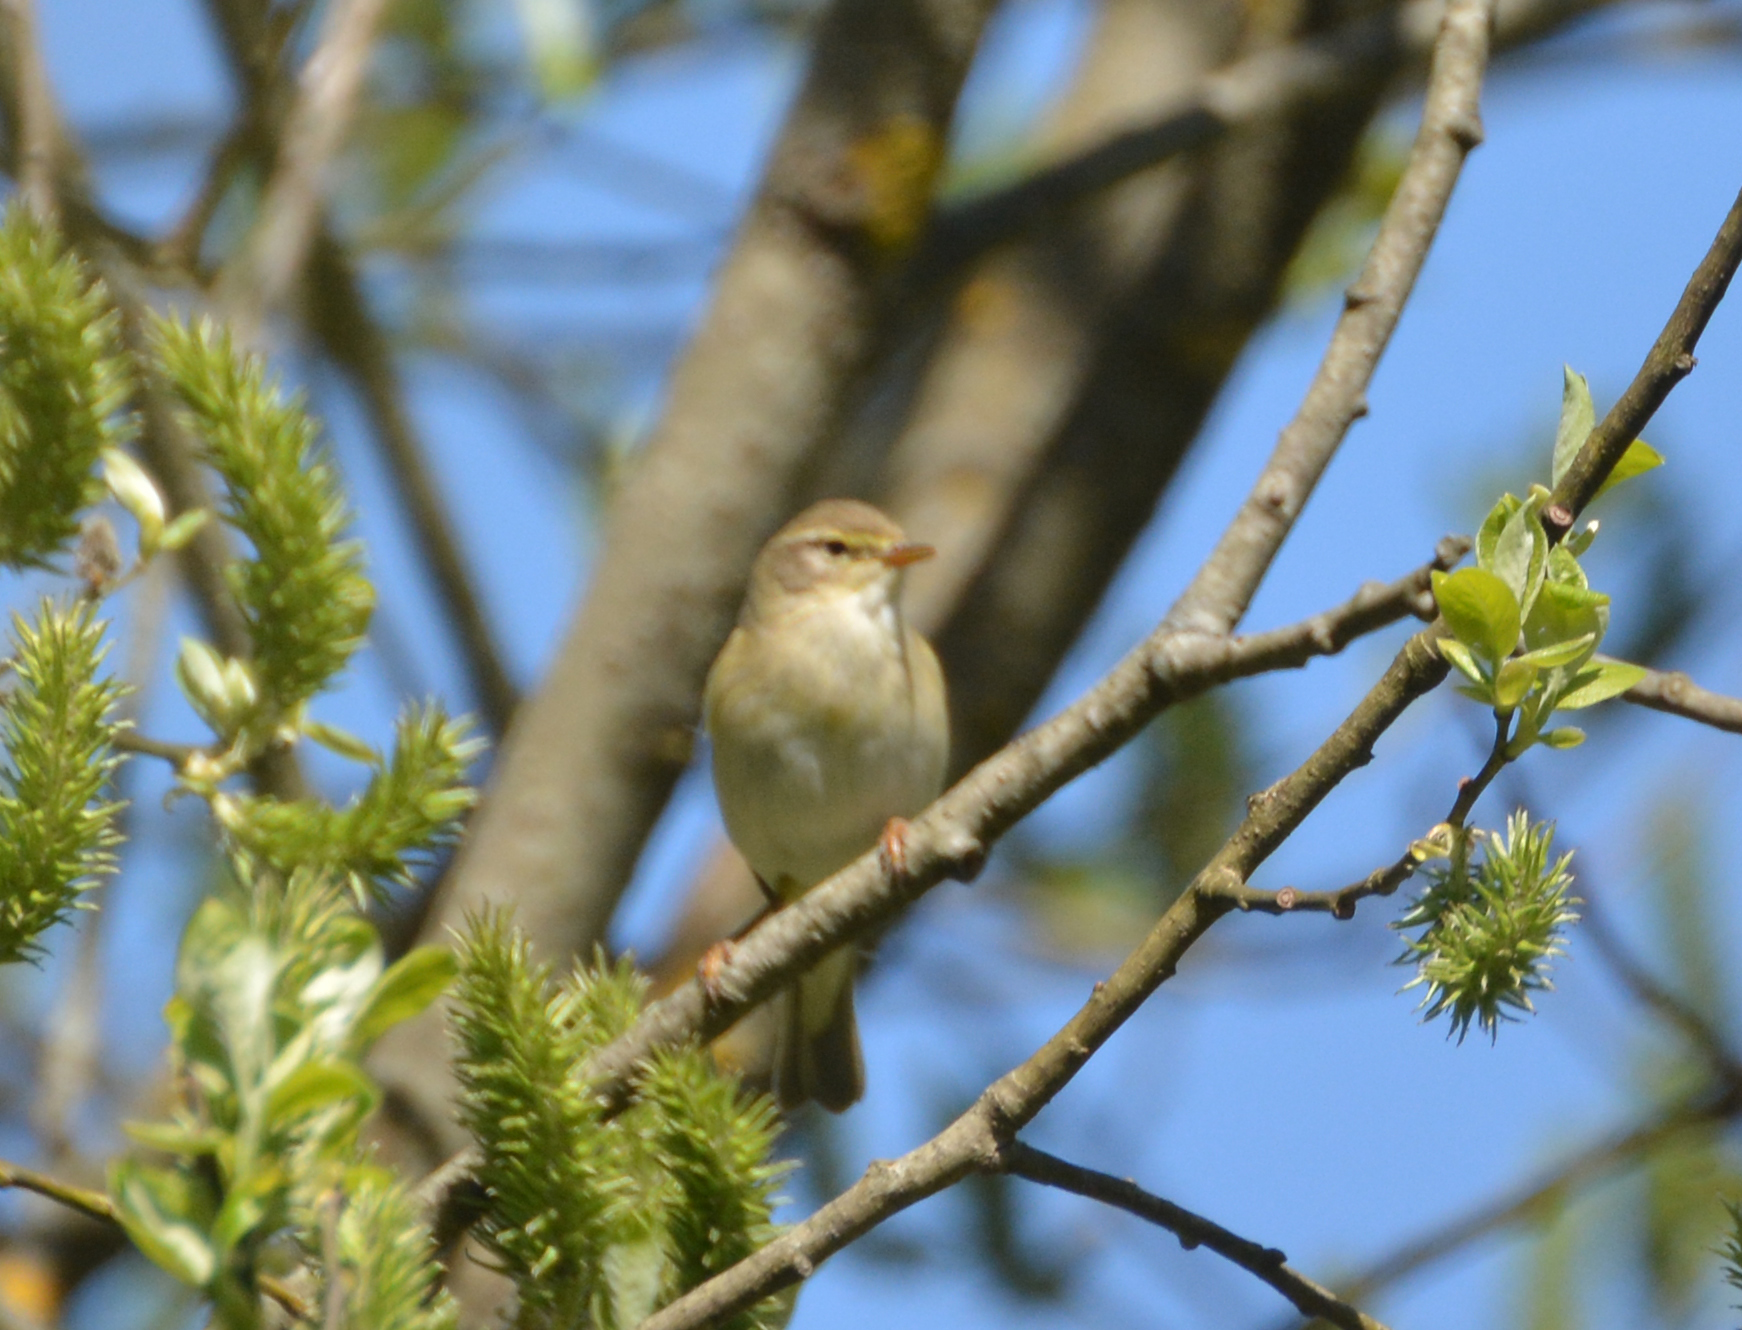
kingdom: Animalia
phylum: Chordata
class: Aves
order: Passeriformes
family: Phylloscopidae
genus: Phylloscopus
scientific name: Phylloscopus trochilus
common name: Willow warbler
